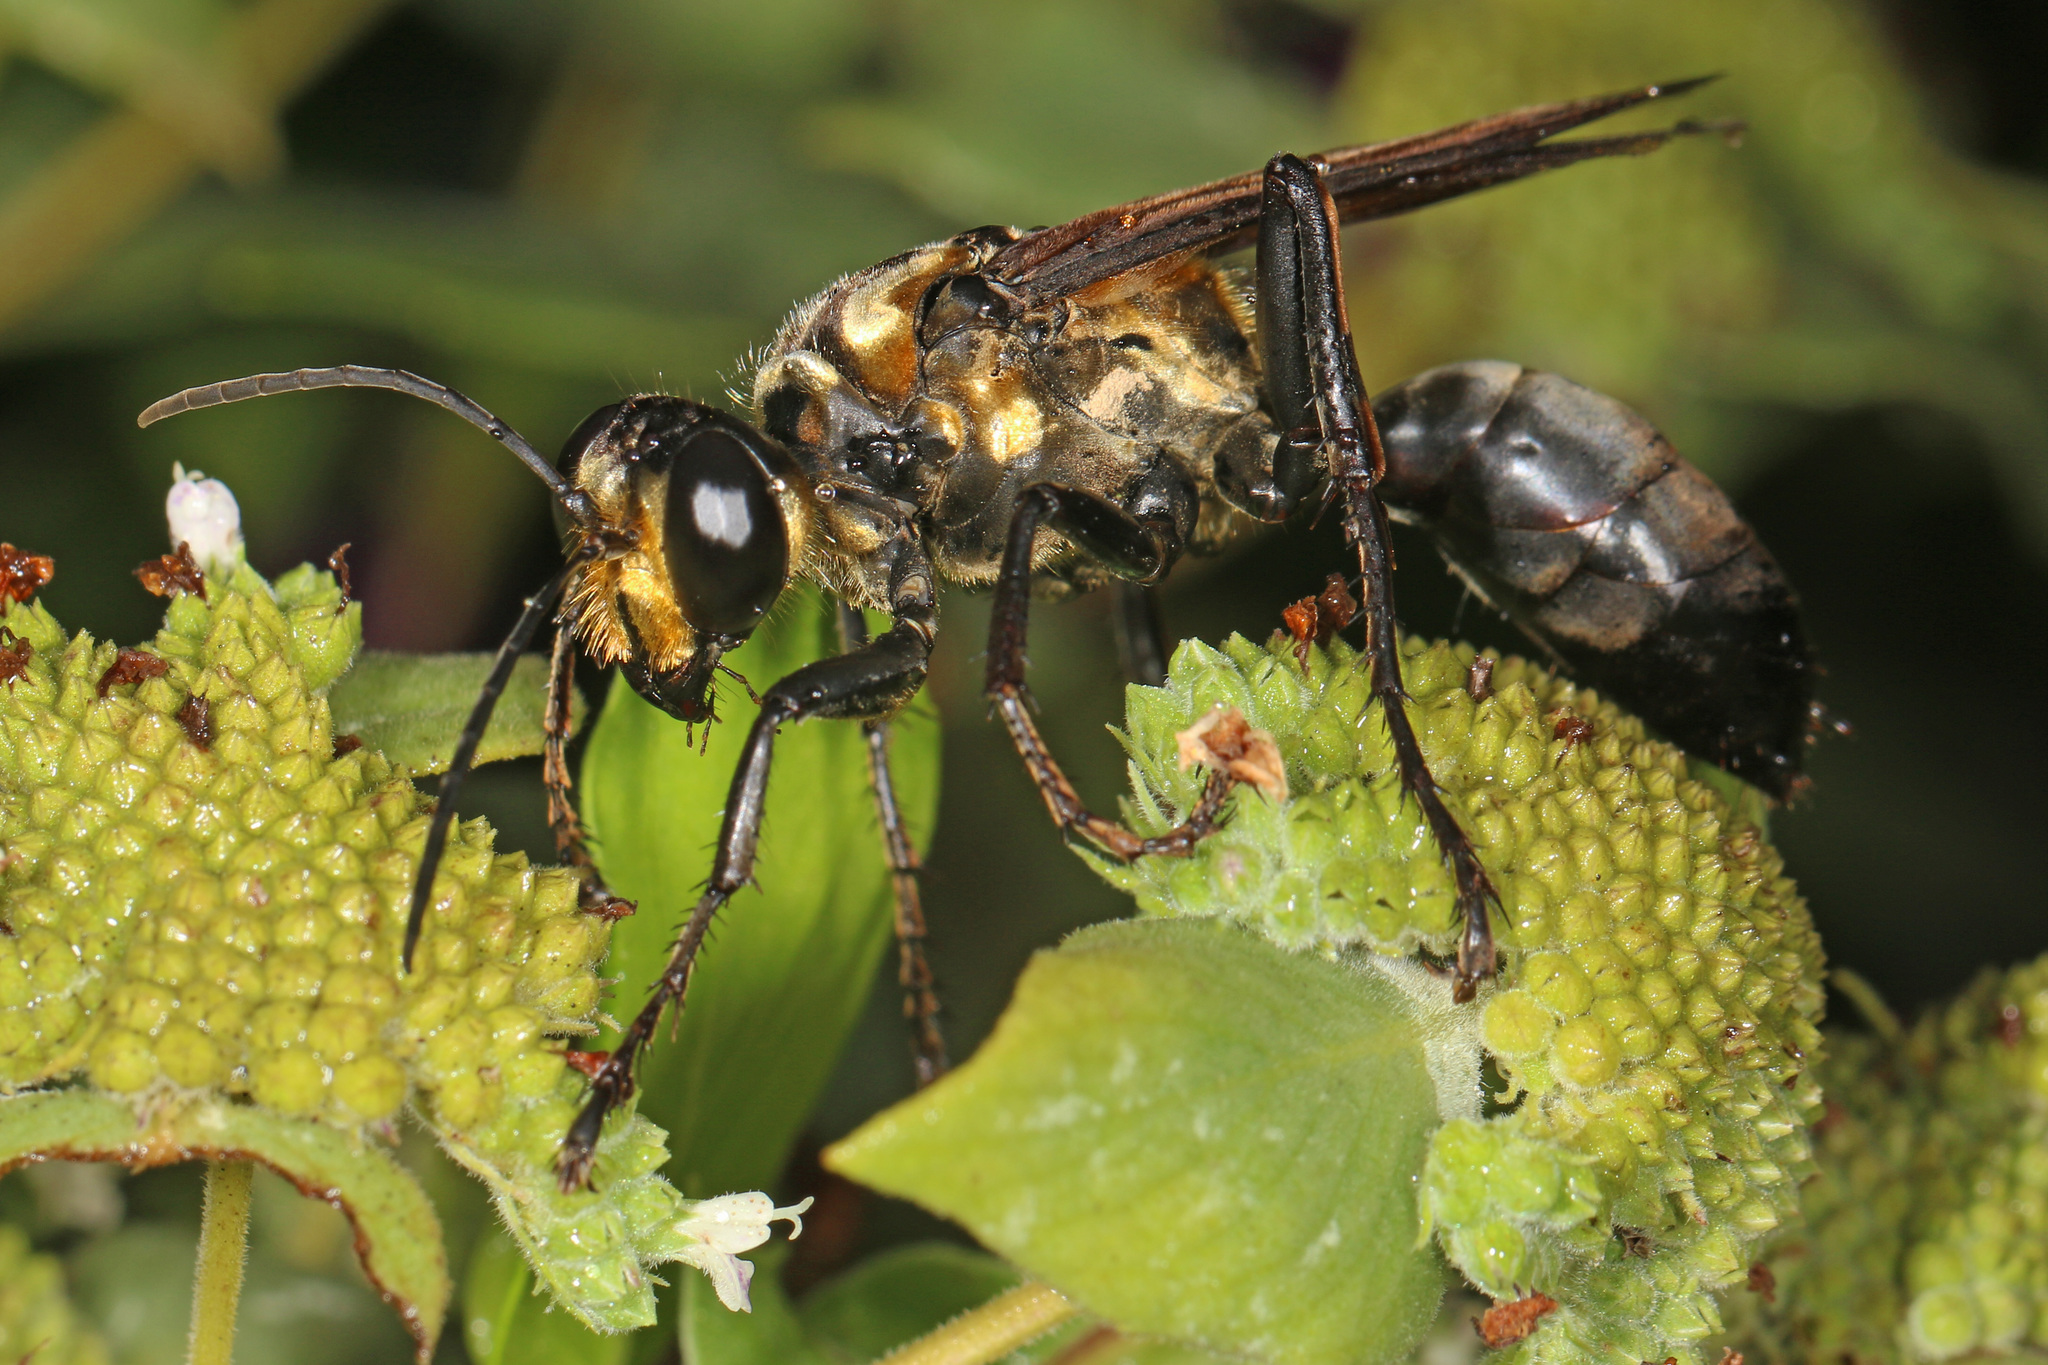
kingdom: Animalia
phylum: Arthropoda
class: Insecta
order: Hymenoptera
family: Sphecidae
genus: Sphex
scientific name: Sphex habenus
